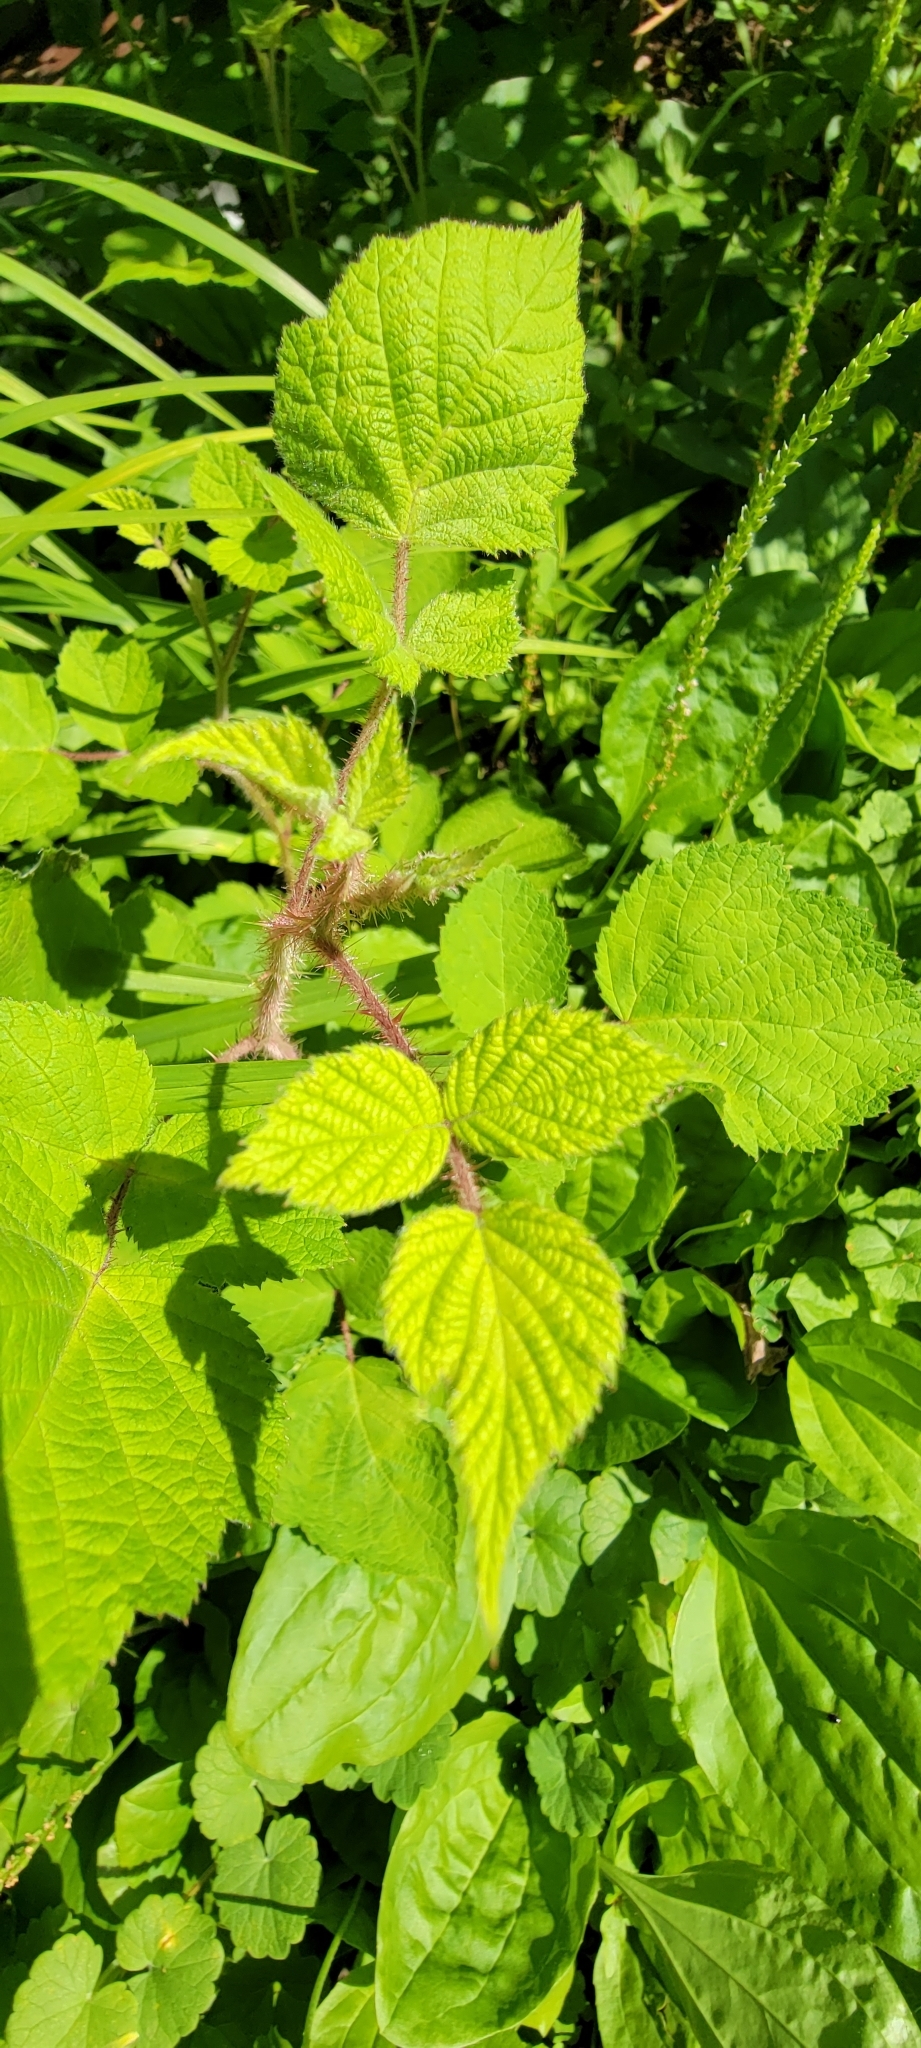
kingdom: Plantae
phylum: Tracheophyta
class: Magnoliopsida
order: Rosales
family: Rosaceae
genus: Rubus
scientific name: Rubus phoenicolasius
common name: Japanese wineberry
